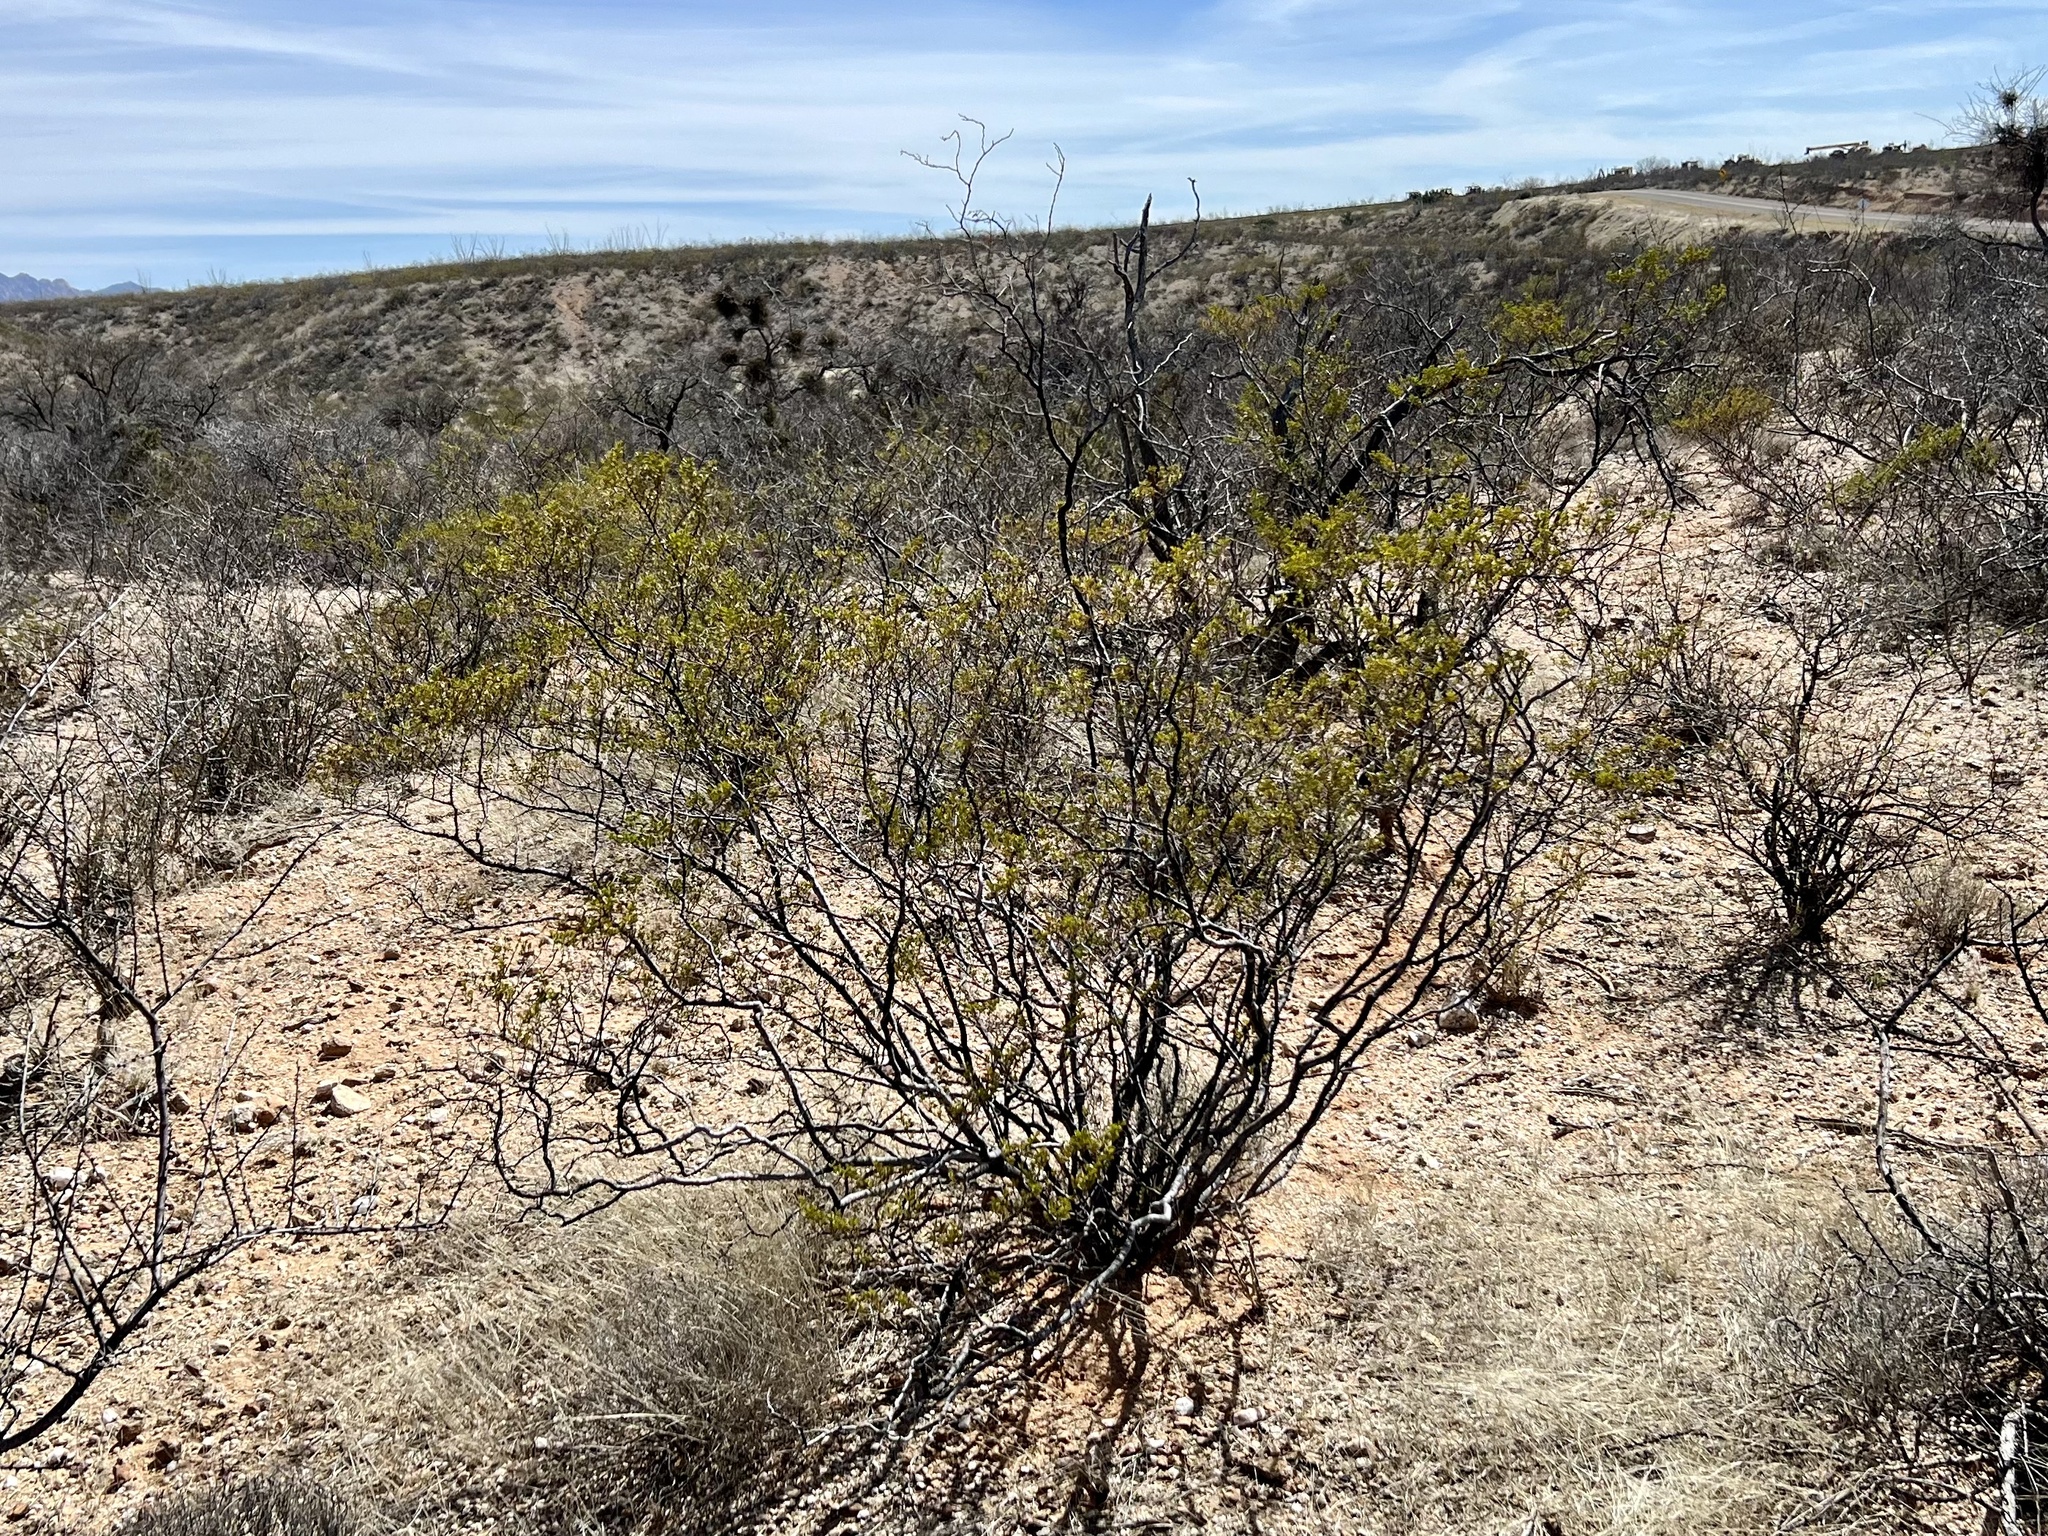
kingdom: Plantae
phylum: Tracheophyta
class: Magnoliopsida
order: Zygophyllales
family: Zygophyllaceae
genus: Larrea
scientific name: Larrea tridentata
